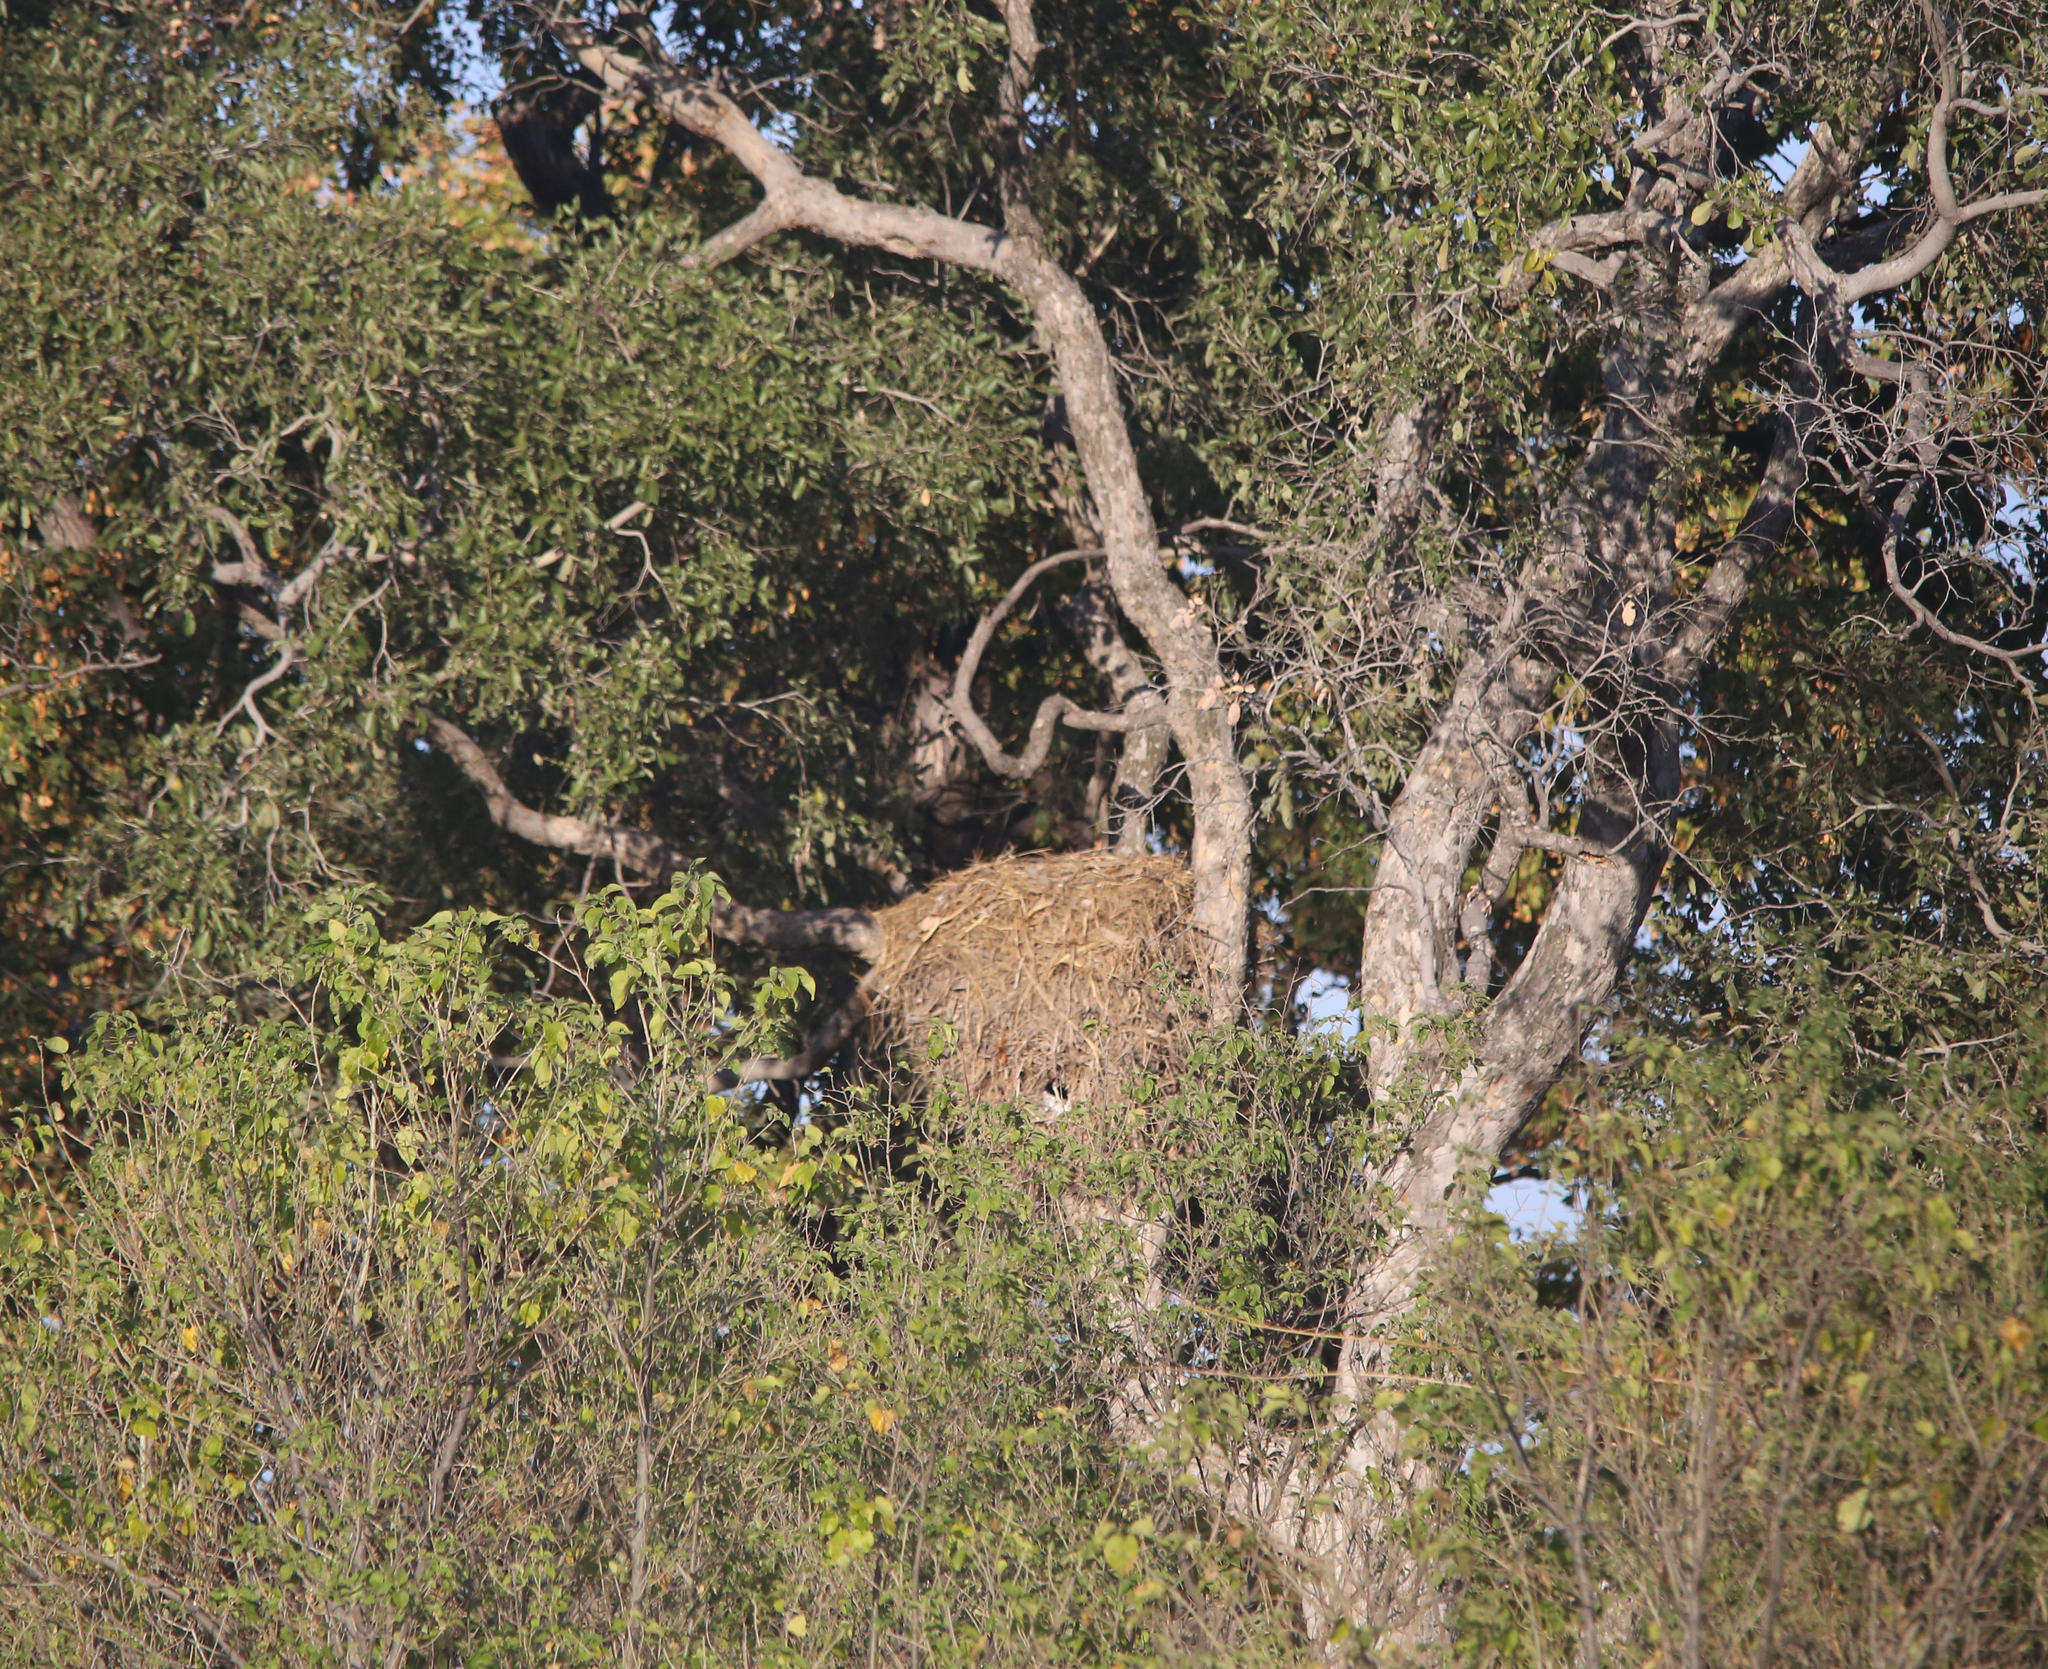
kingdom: Animalia
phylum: Chordata
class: Aves
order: Pelecaniformes
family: Scopidae
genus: Scopus
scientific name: Scopus umbretta
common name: Hamerkop
